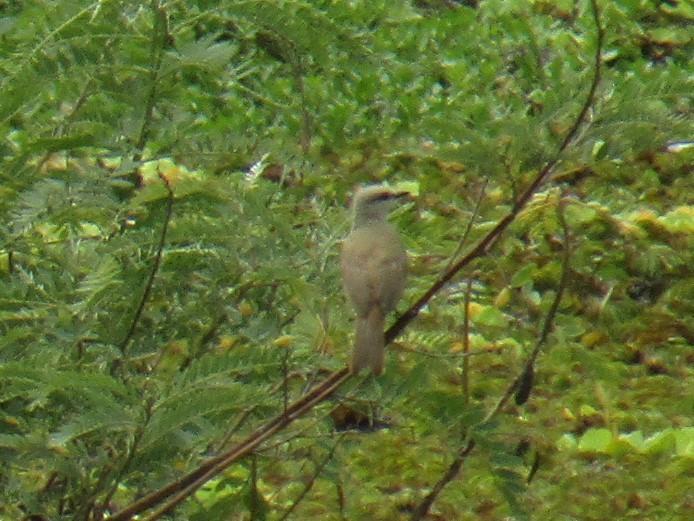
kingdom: Animalia
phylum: Chordata
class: Aves
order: Passeriformes
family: Tyrannidae
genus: Tyrannus
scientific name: Tyrannus melancholicus
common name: Tropical kingbird
